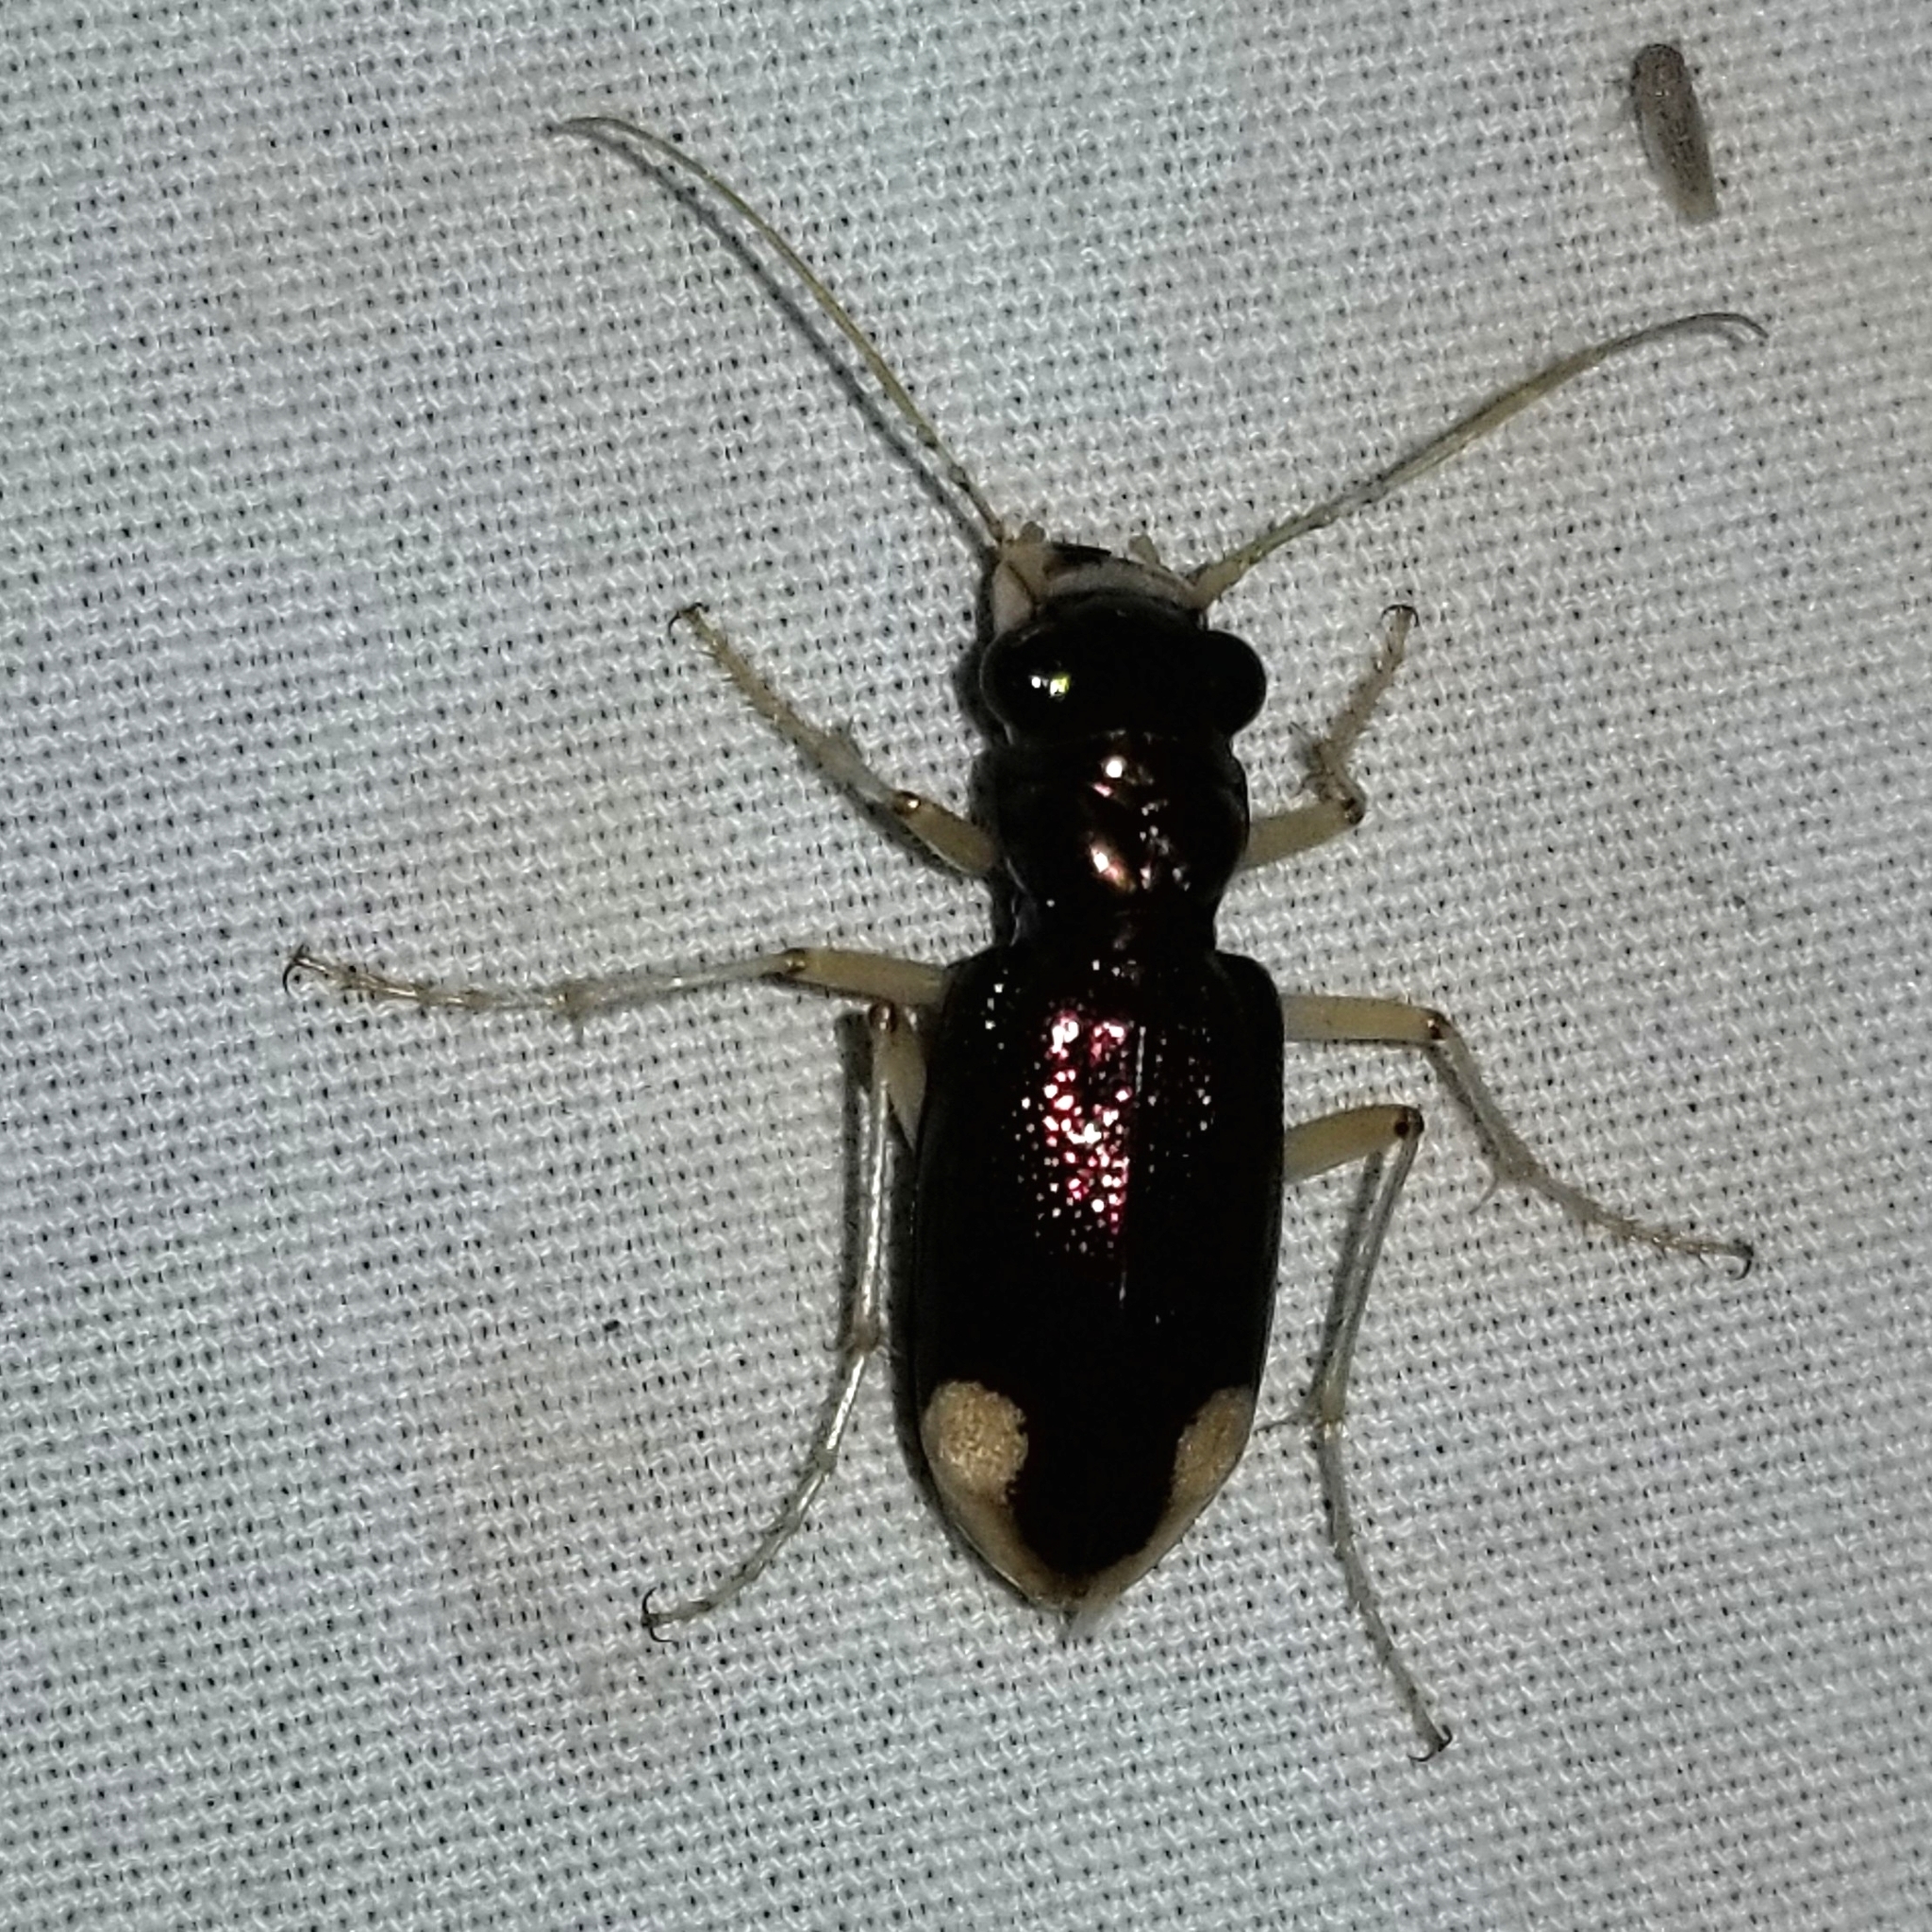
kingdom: Animalia
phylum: Arthropoda
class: Insecta
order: Coleoptera
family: Carabidae
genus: Tetracha
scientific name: Tetracha carolina
